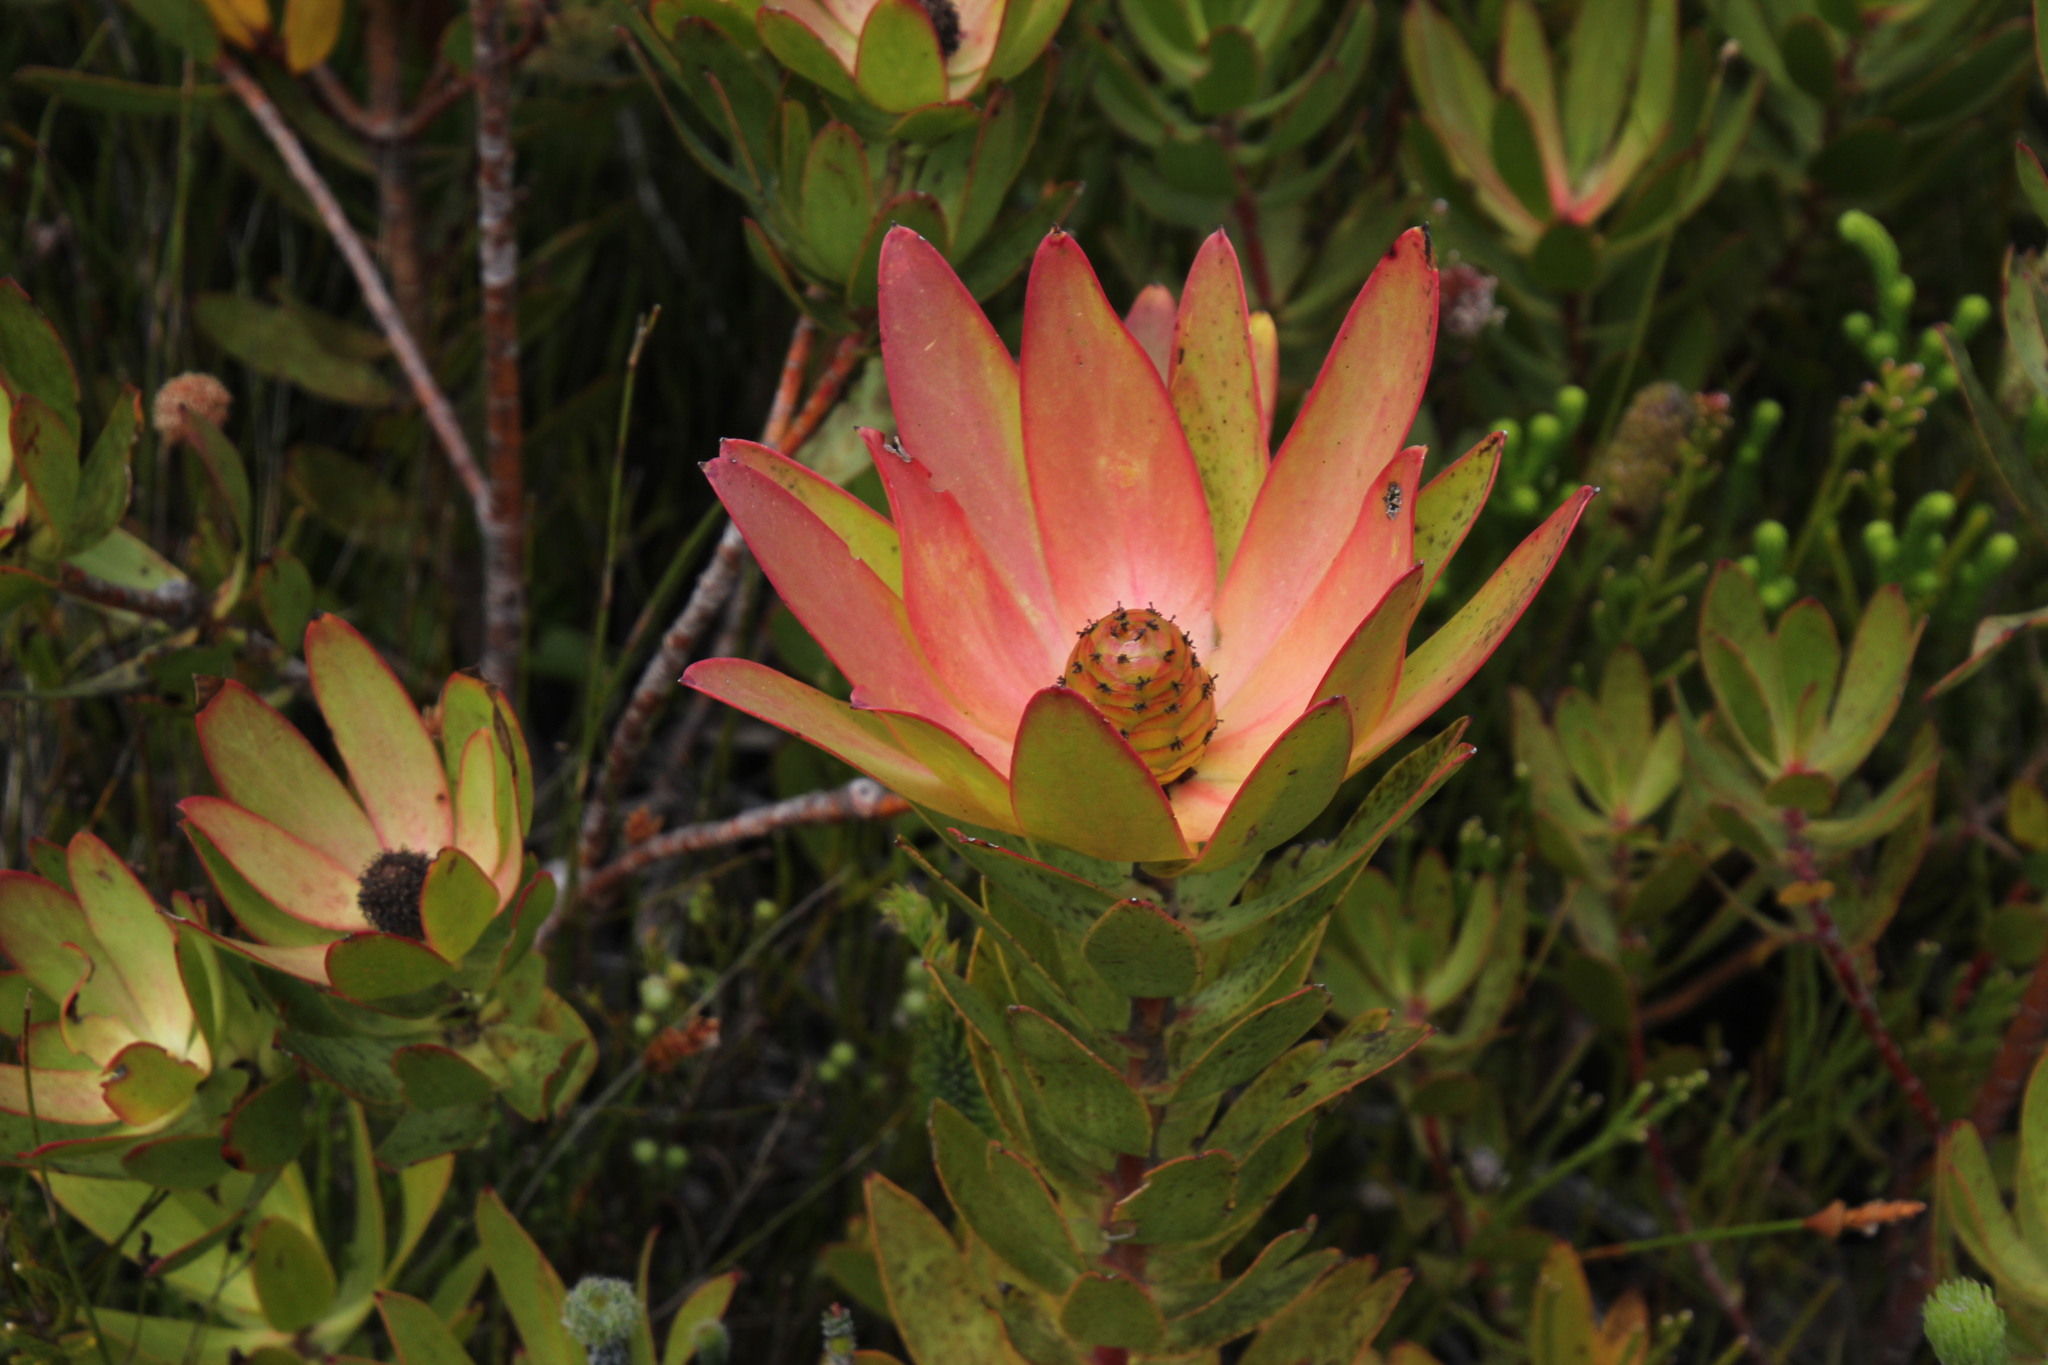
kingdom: Plantae
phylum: Tracheophyta
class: Magnoliopsida
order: Proteales
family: Proteaceae
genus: Leucadendron
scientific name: Leucadendron gandogeri
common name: Broad-leaf conebush
